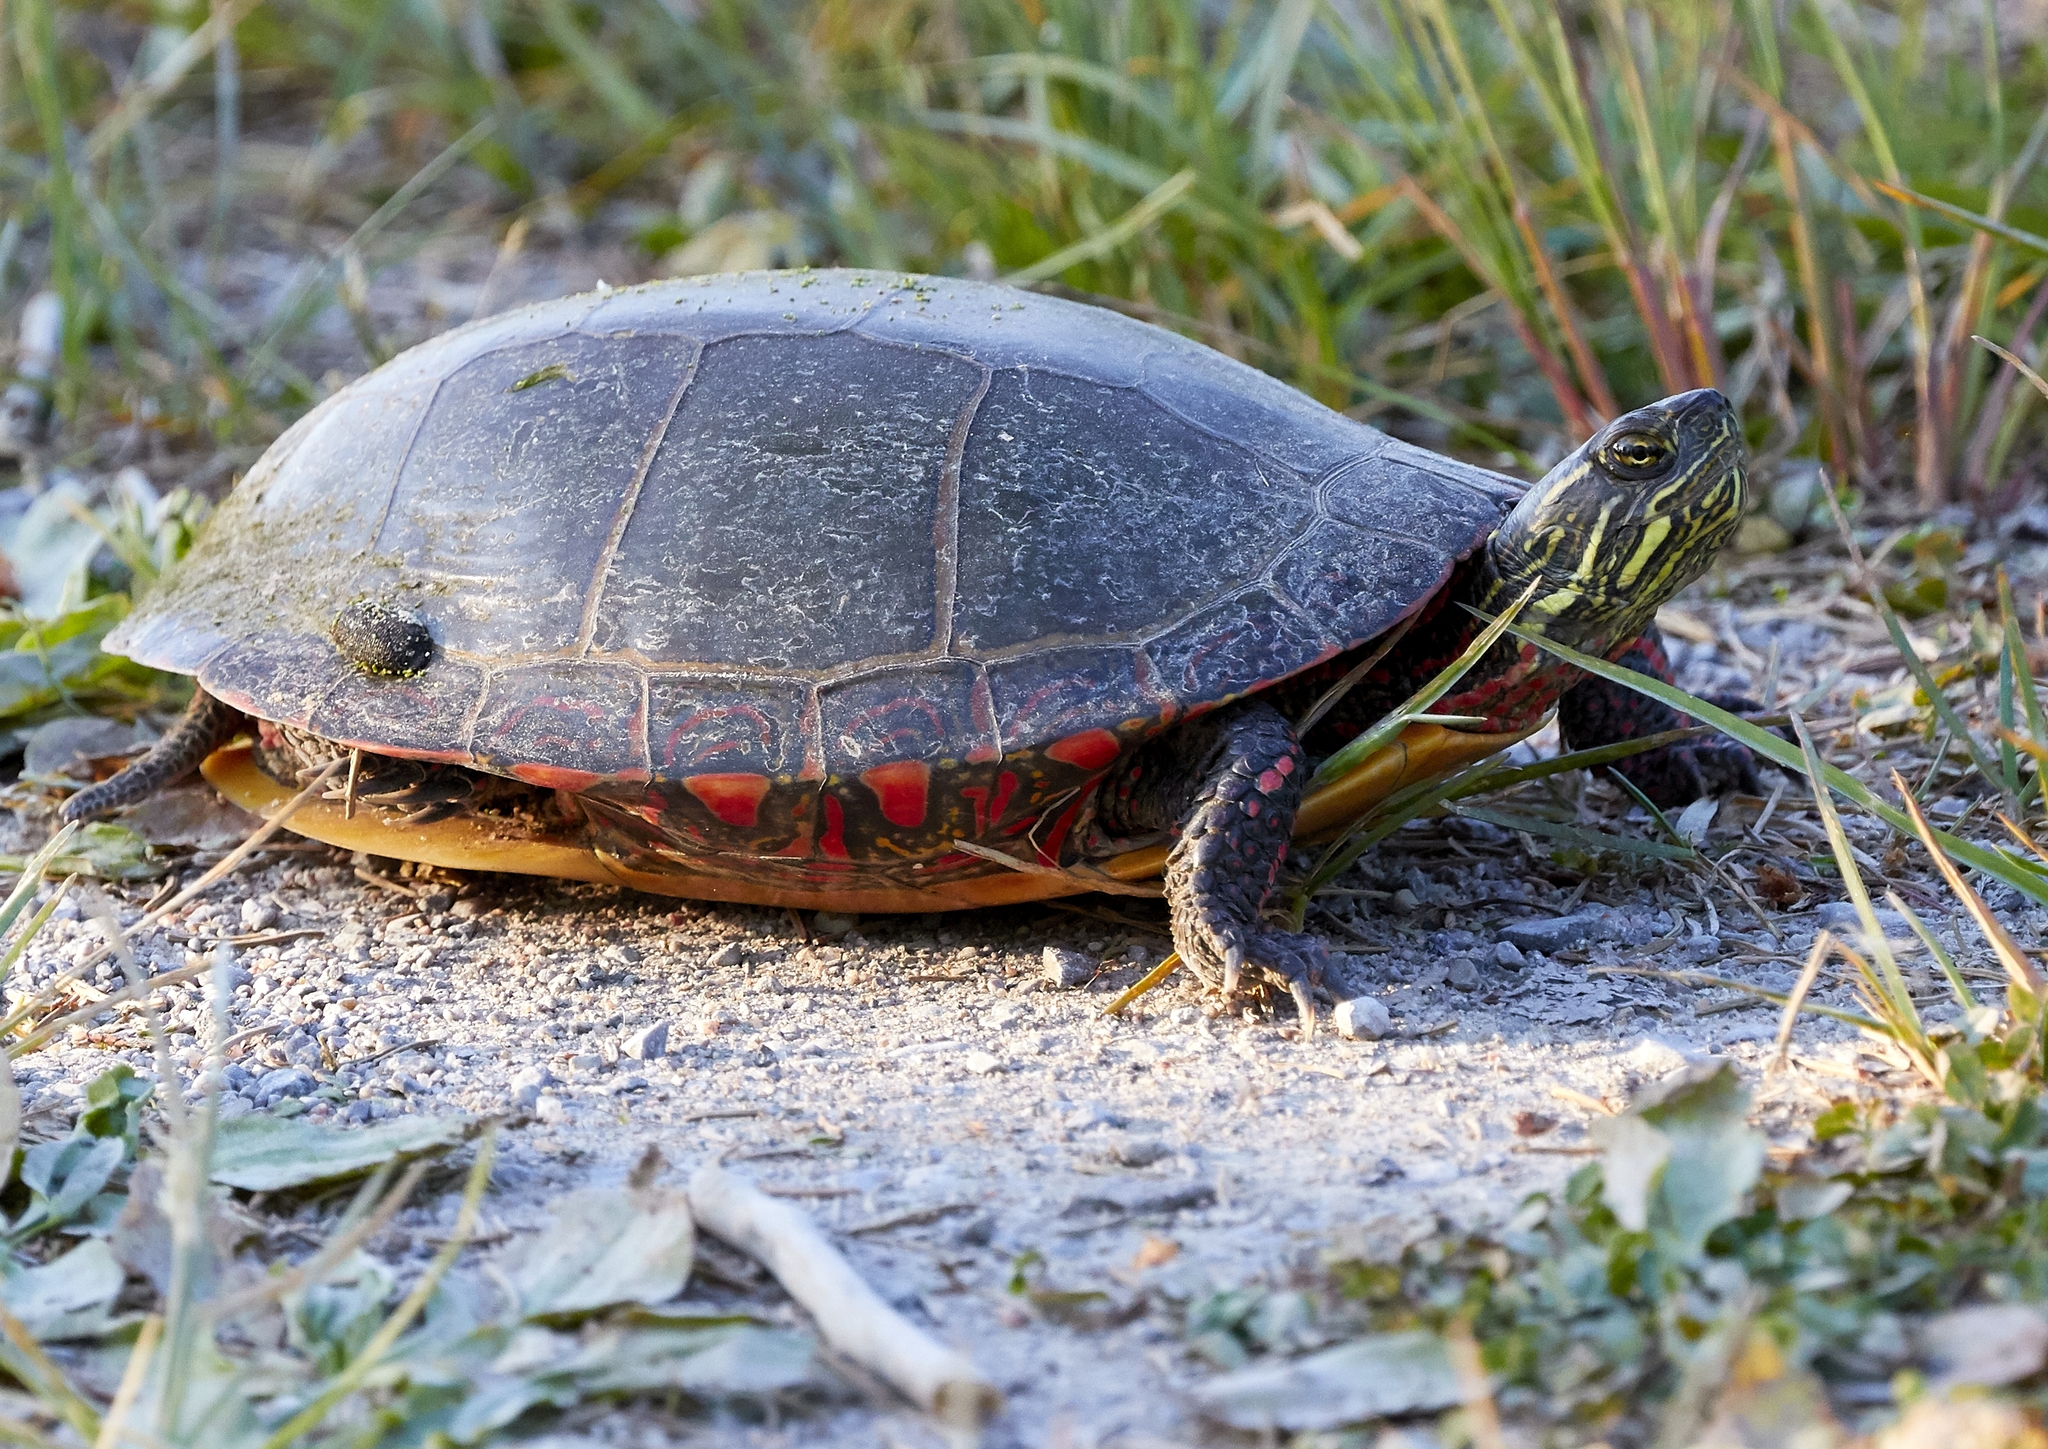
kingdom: Animalia
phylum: Chordata
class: Testudines
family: Emydidae
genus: Chrysemys
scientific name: Chrysemys picta
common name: Painted turtle
